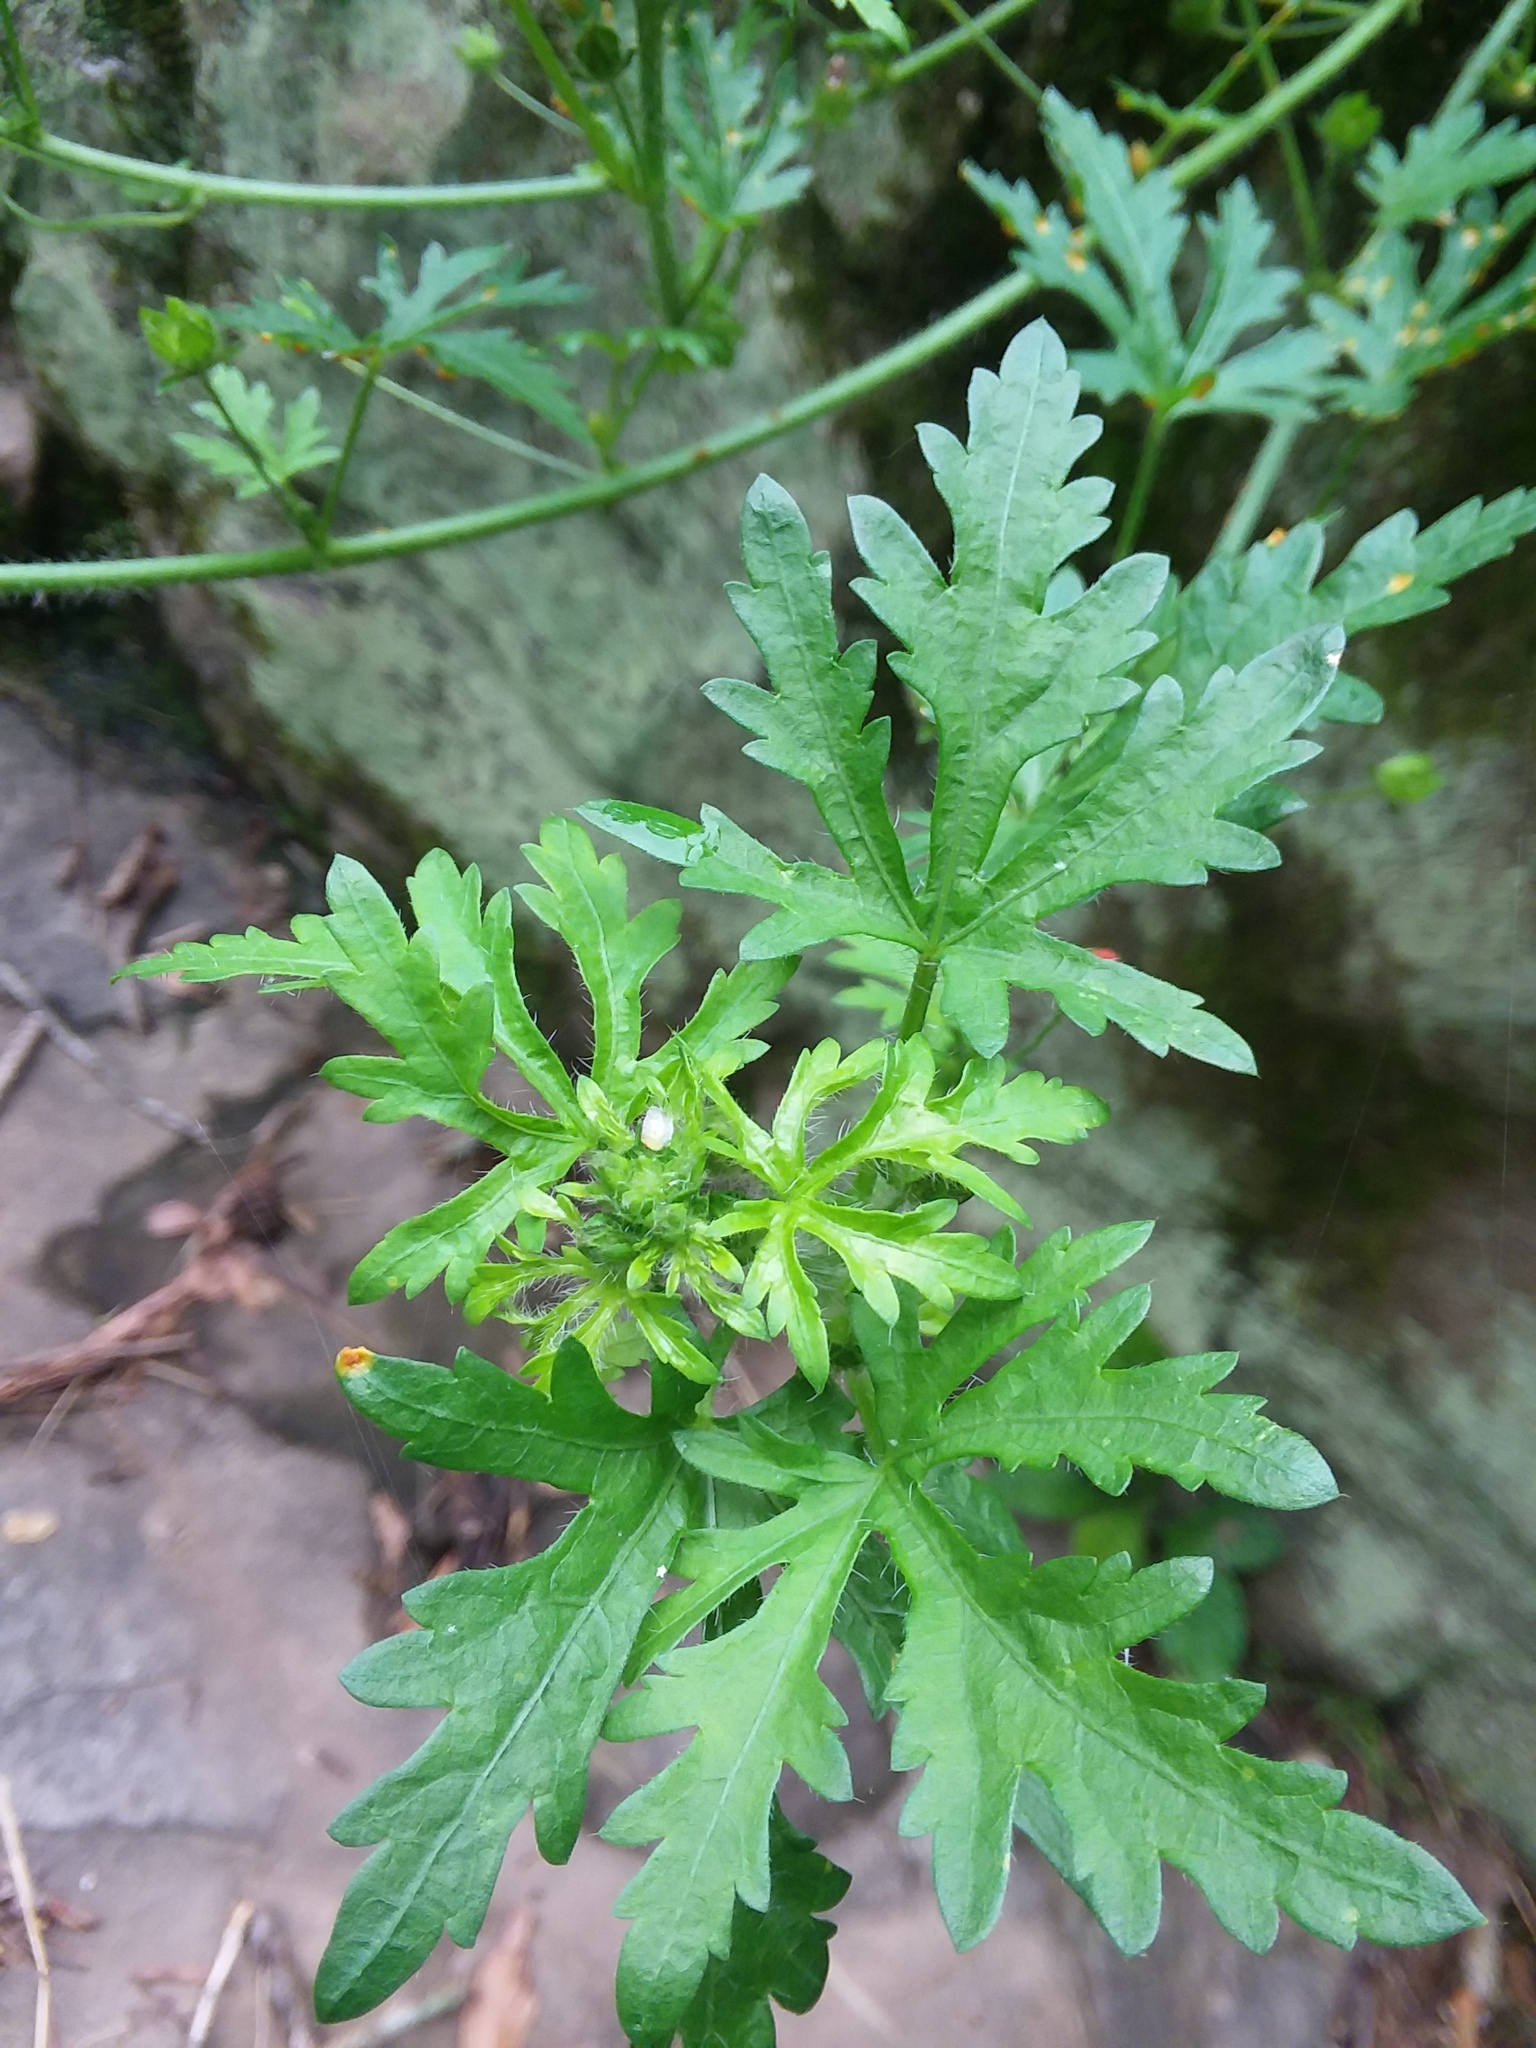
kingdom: Plantae
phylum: Tracheophyta
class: Magnoliopsida
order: Malvales
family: Malvaceae
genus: Modiola
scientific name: Modiola caroliniana
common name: Carolina bristlemallow
